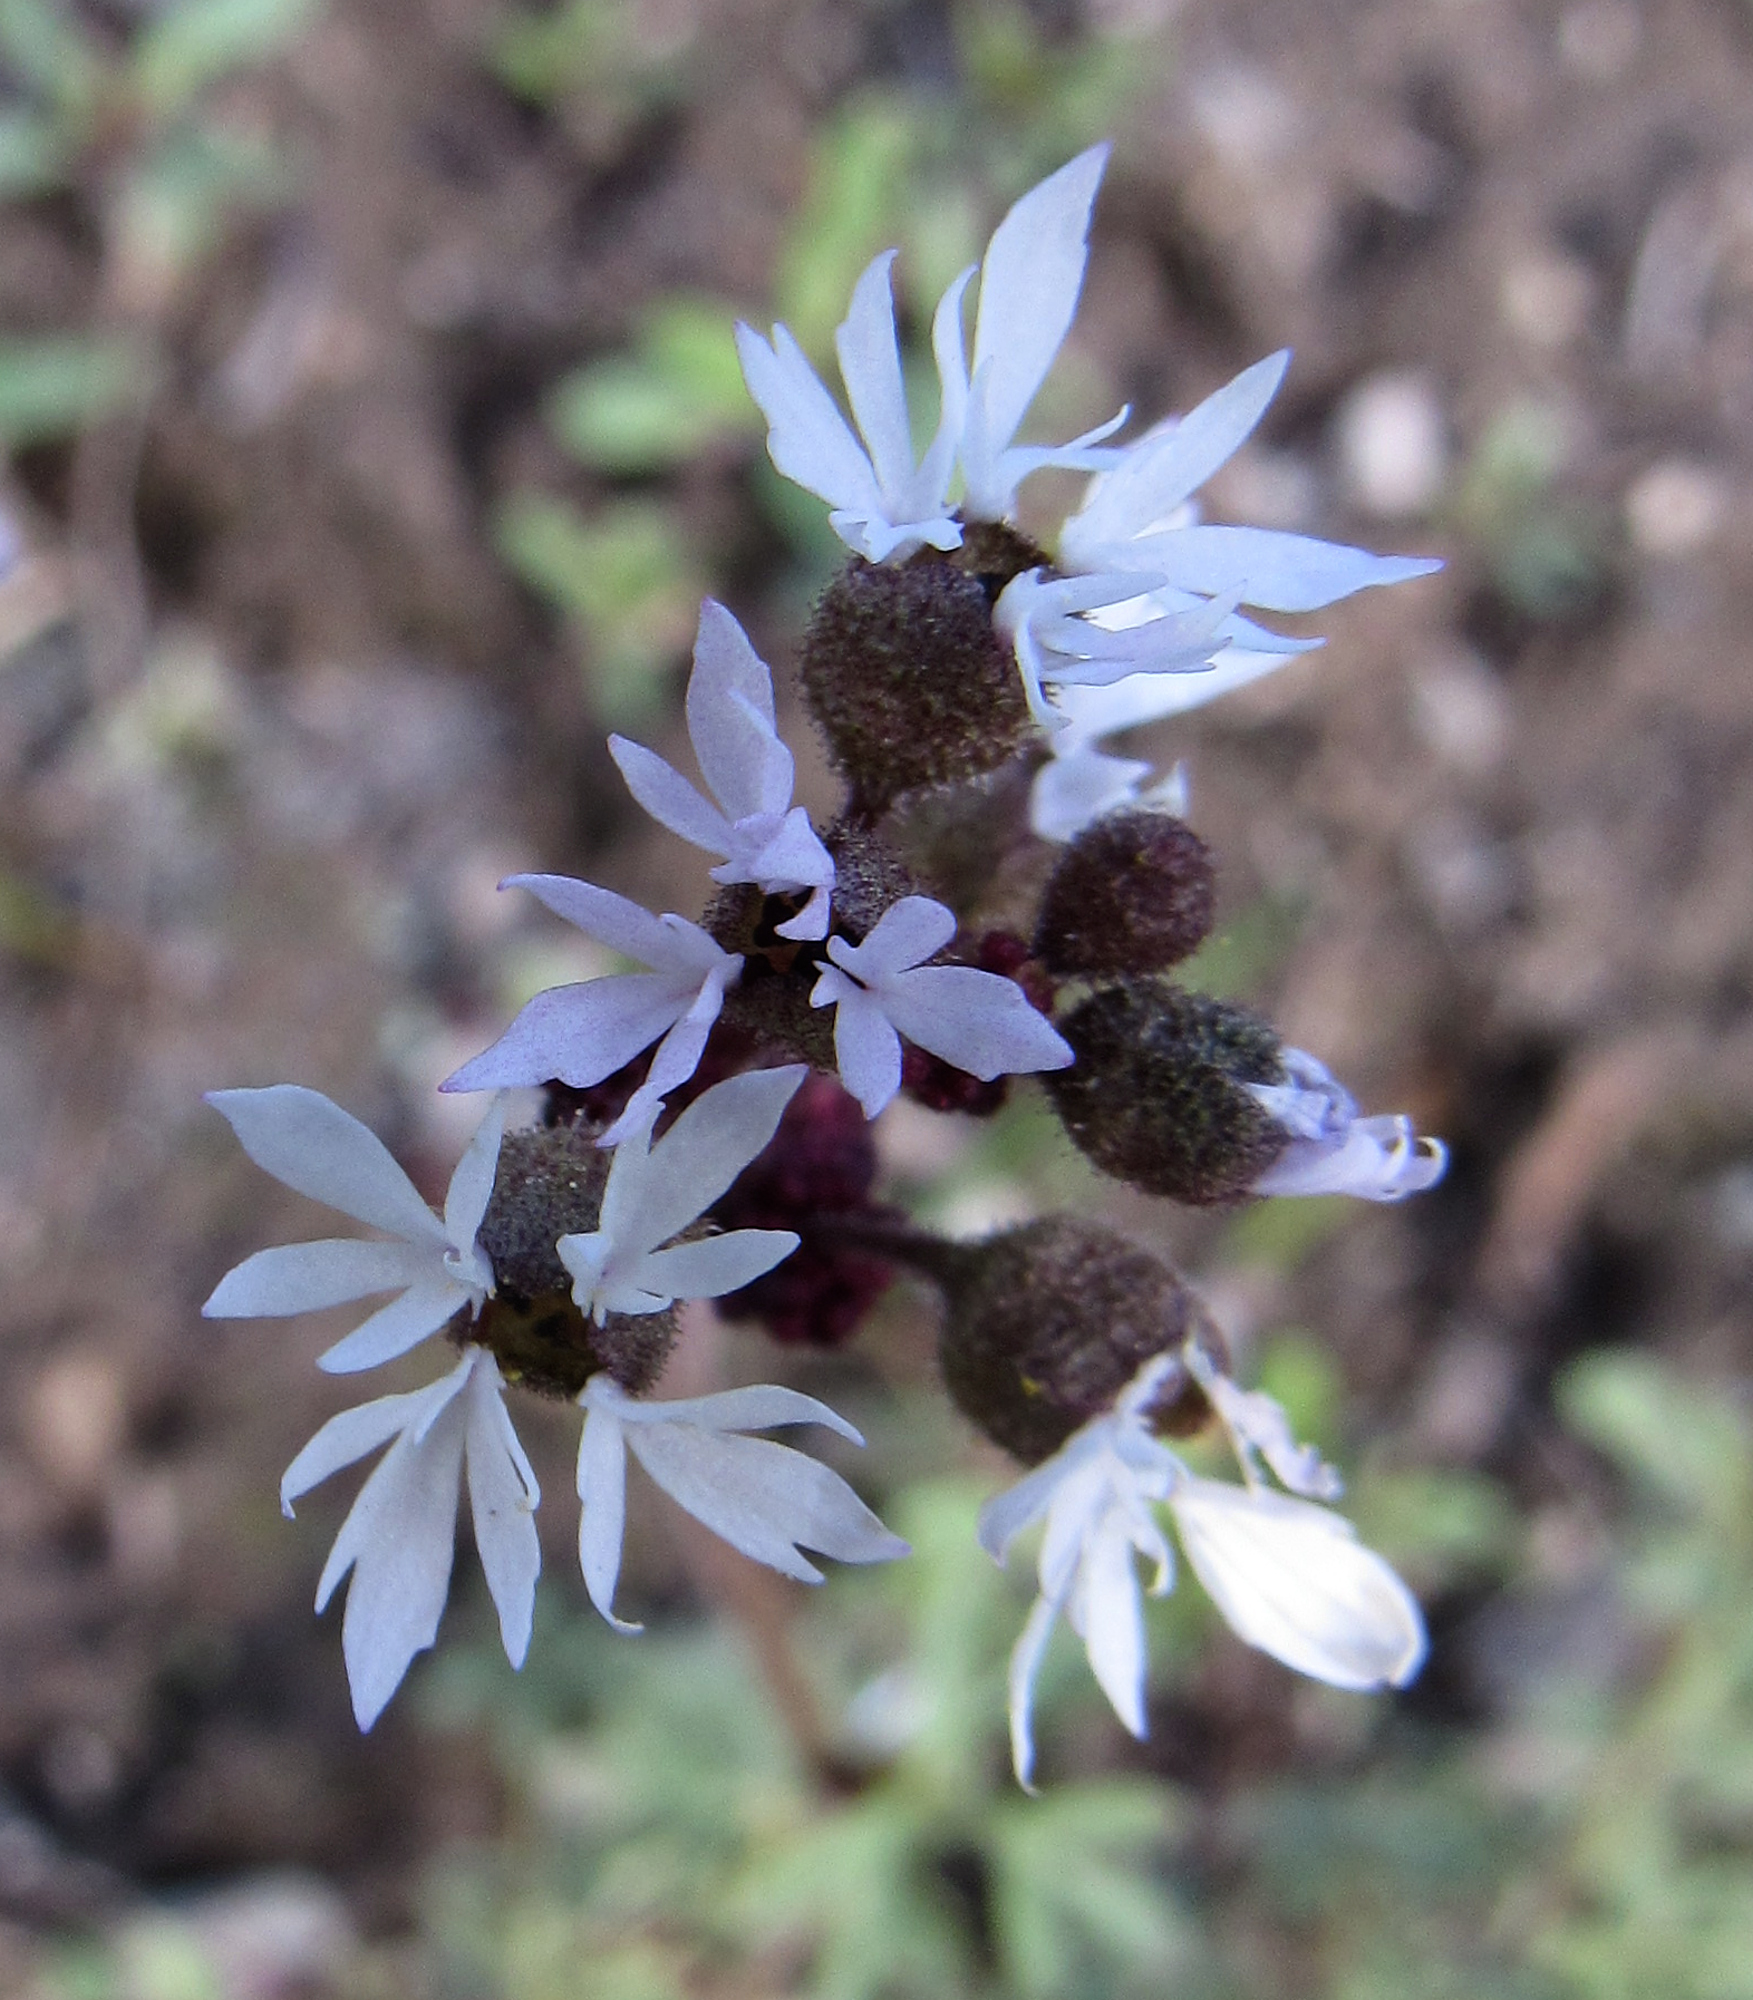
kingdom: Plantae
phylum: Tracheophyta
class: Magnoliopsida
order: Saxifragales
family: Saxifragaceae
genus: Lithophragma
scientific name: Lithophragma glabrum
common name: Bulbous prairie-star
